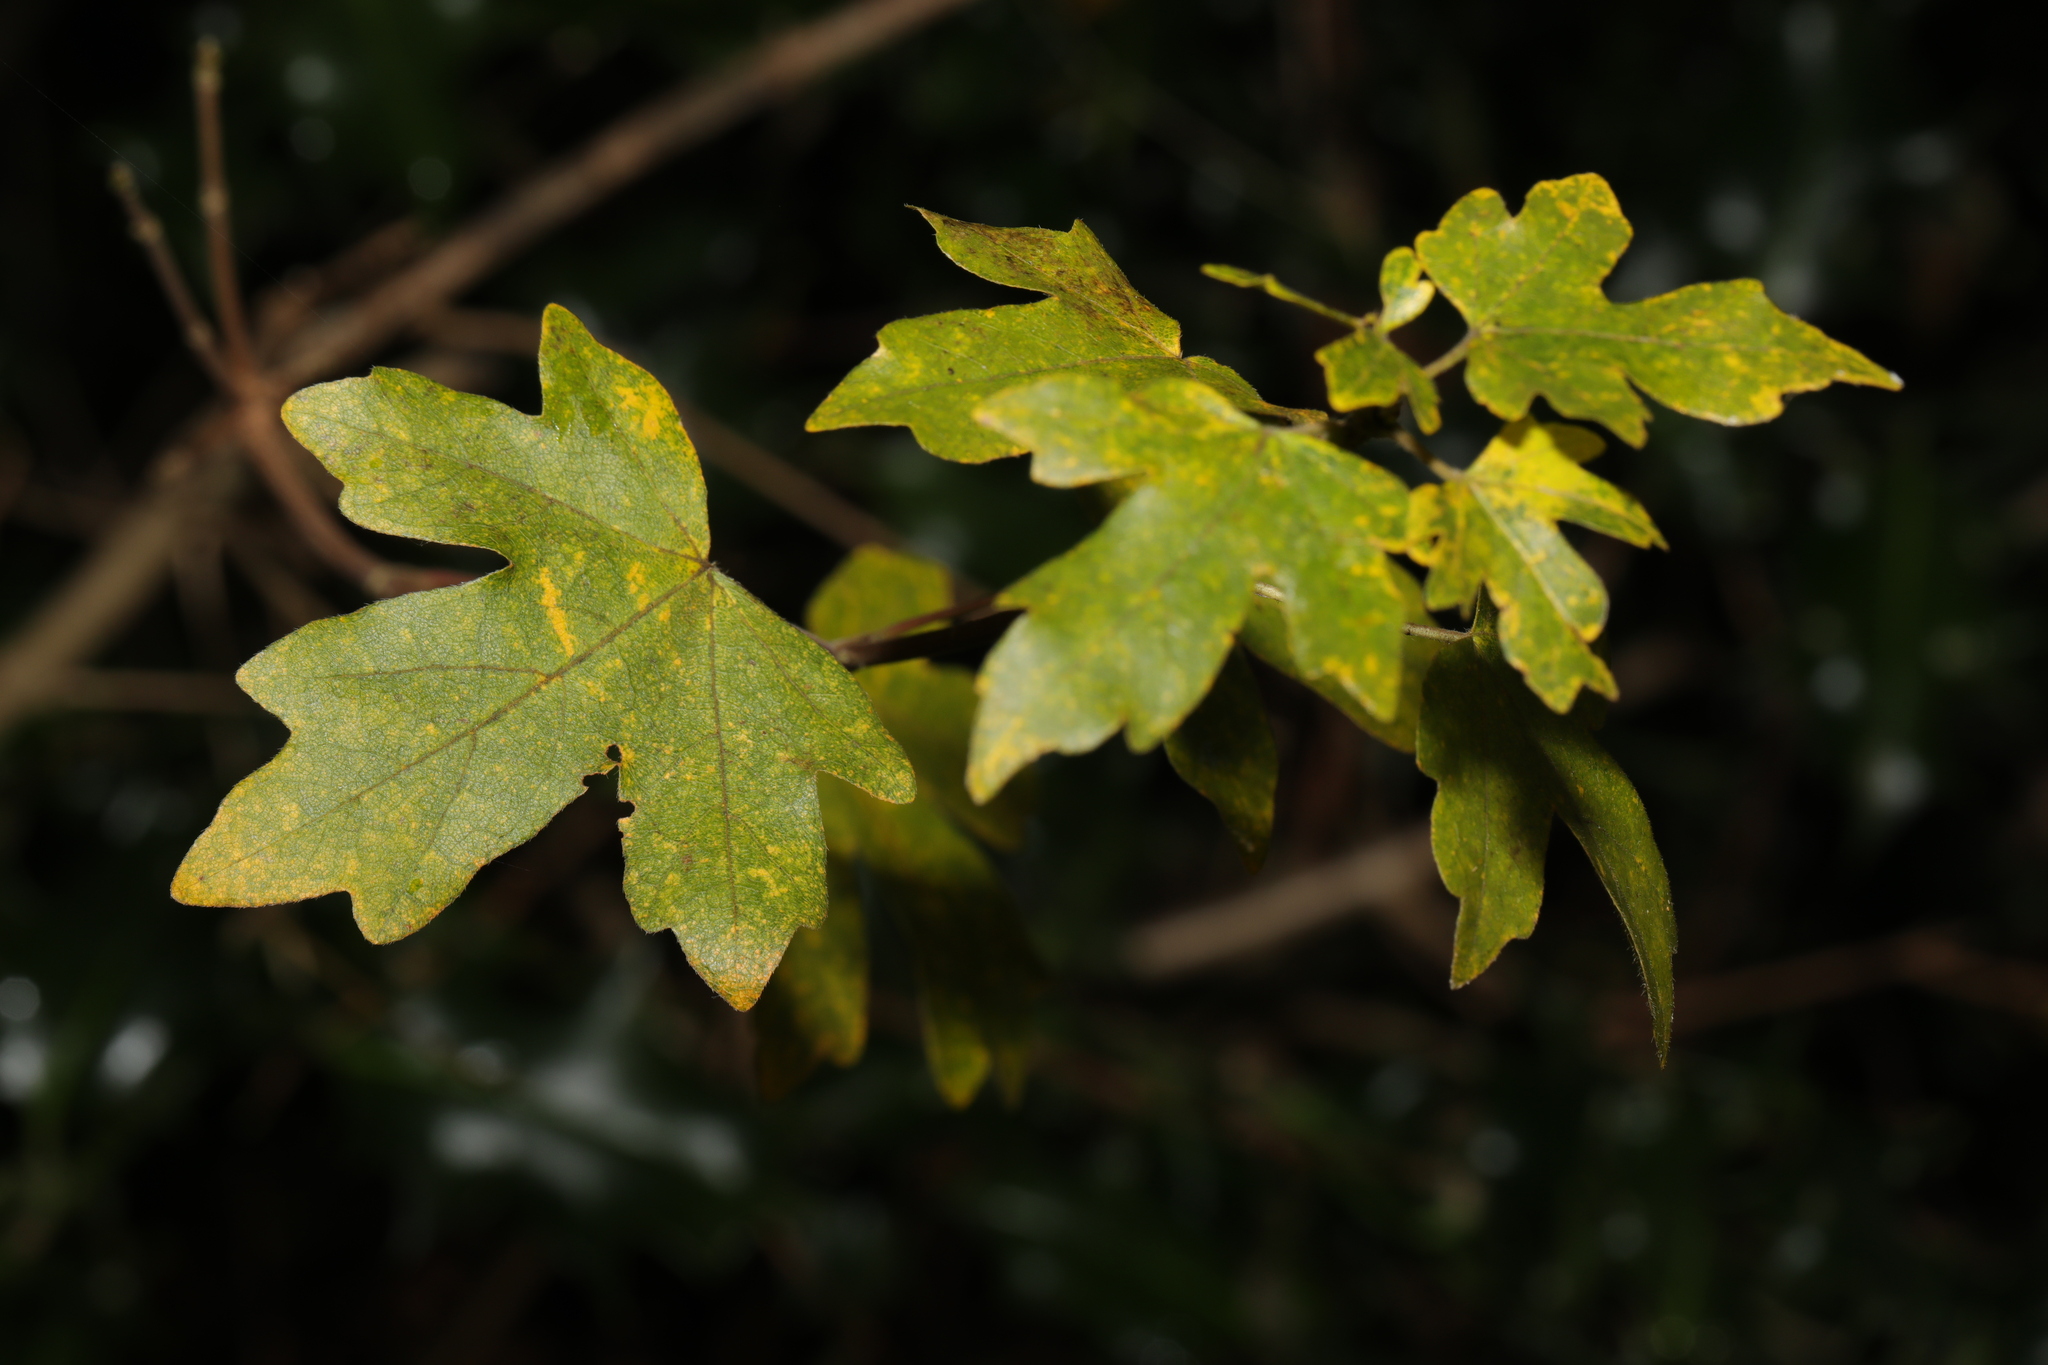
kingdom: Plantae
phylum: Tracheophyta
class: Magnoliopsida
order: Sapindales
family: Sapindaceae
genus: Acer
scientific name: Acer campestre
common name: Field maple
